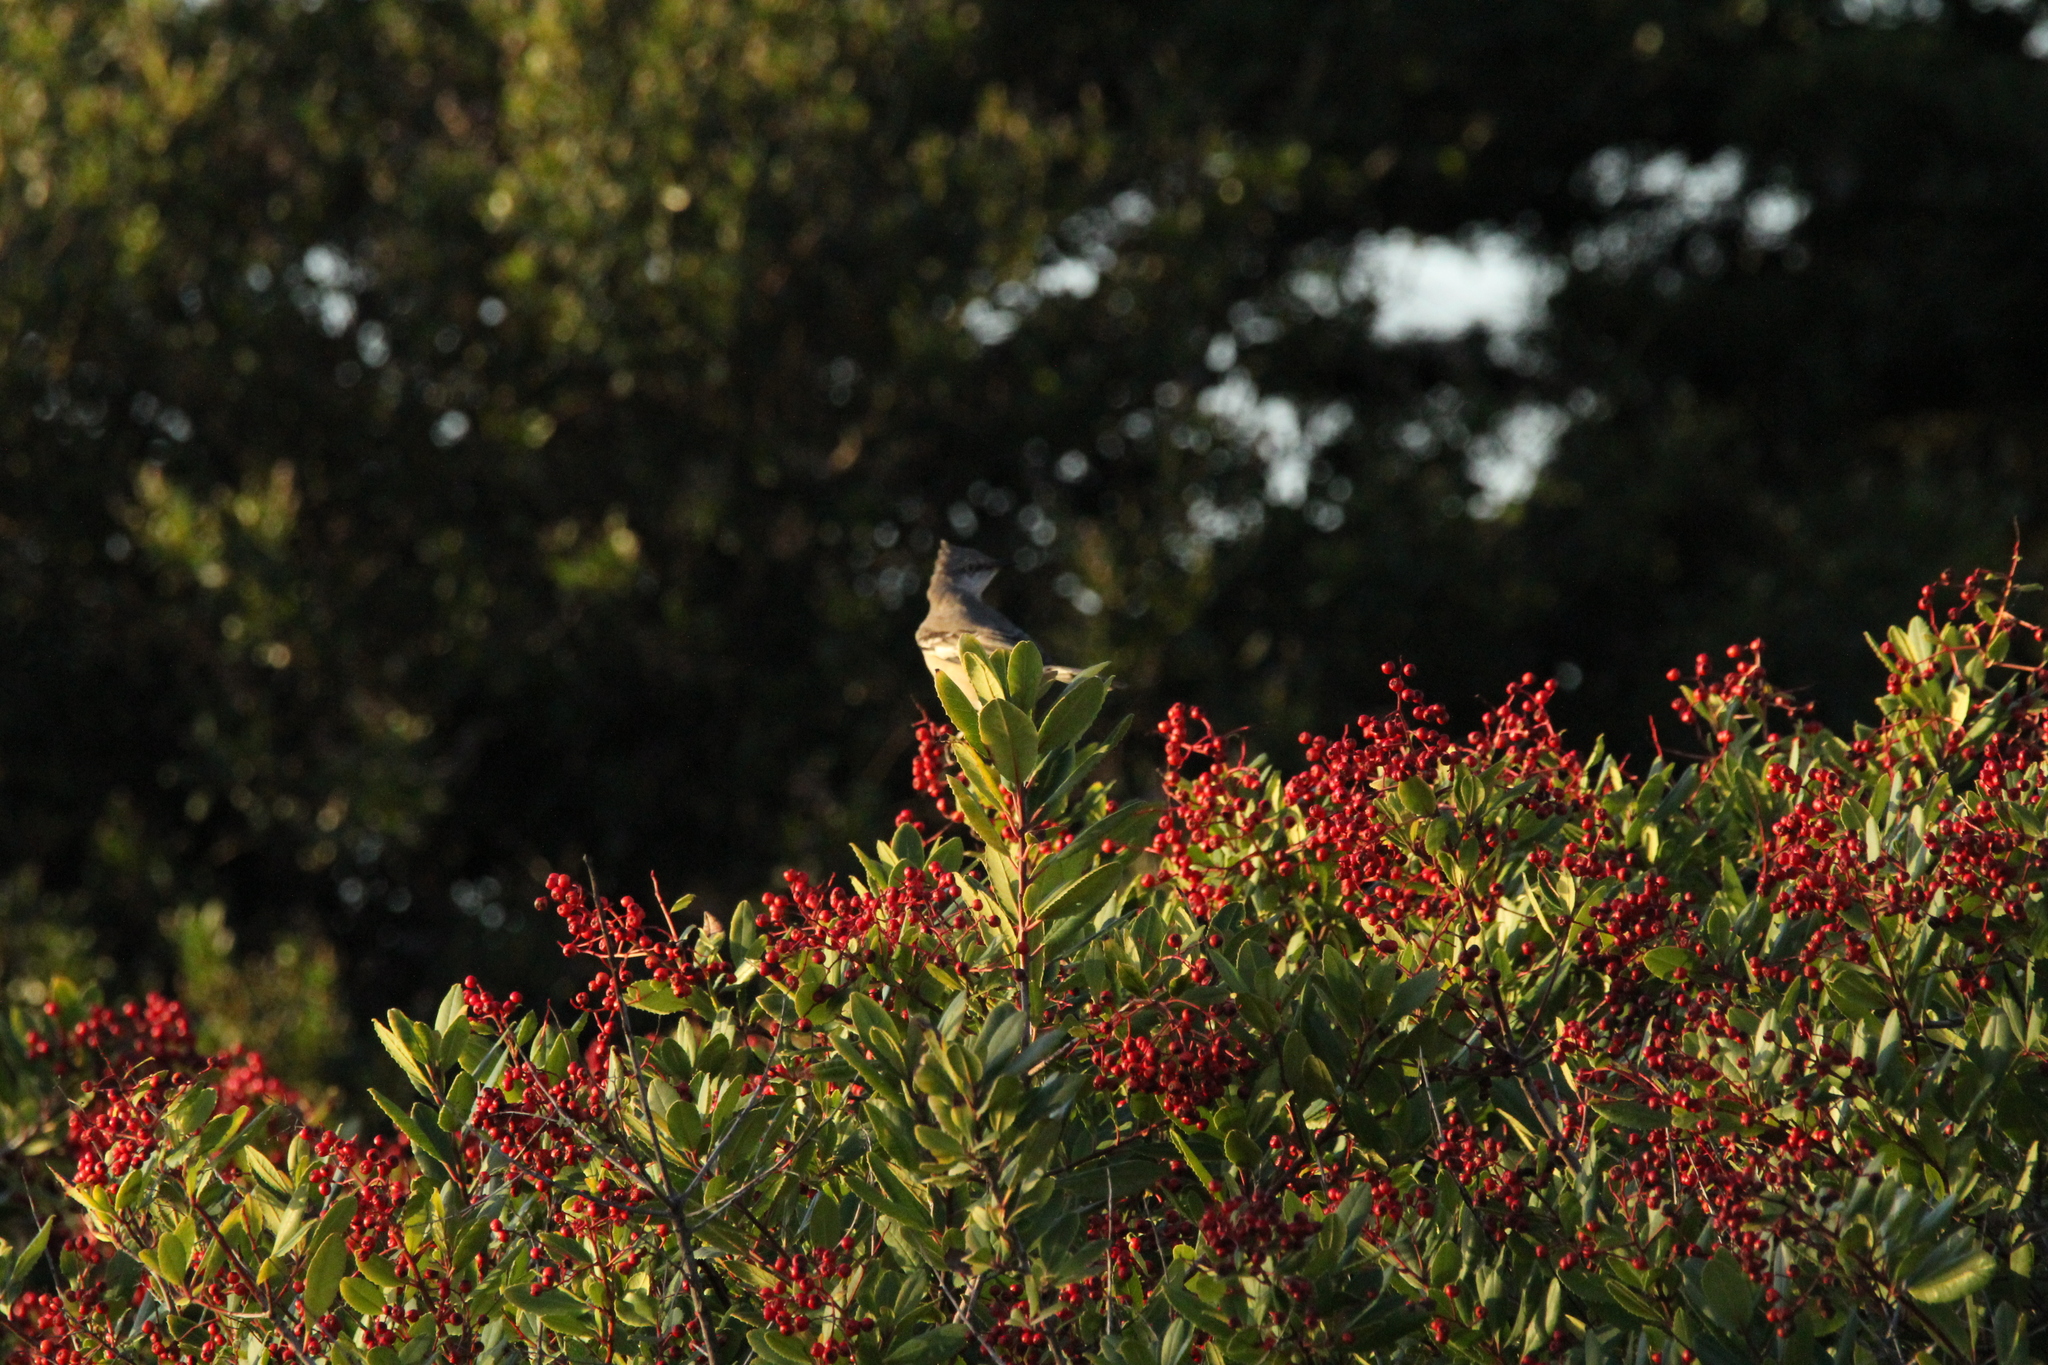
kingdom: Animalia
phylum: Chordata
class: Aves
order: Passeriformes
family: Mimidae
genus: Mimus
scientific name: Mimus polyglottos
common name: Northern mockingbird
